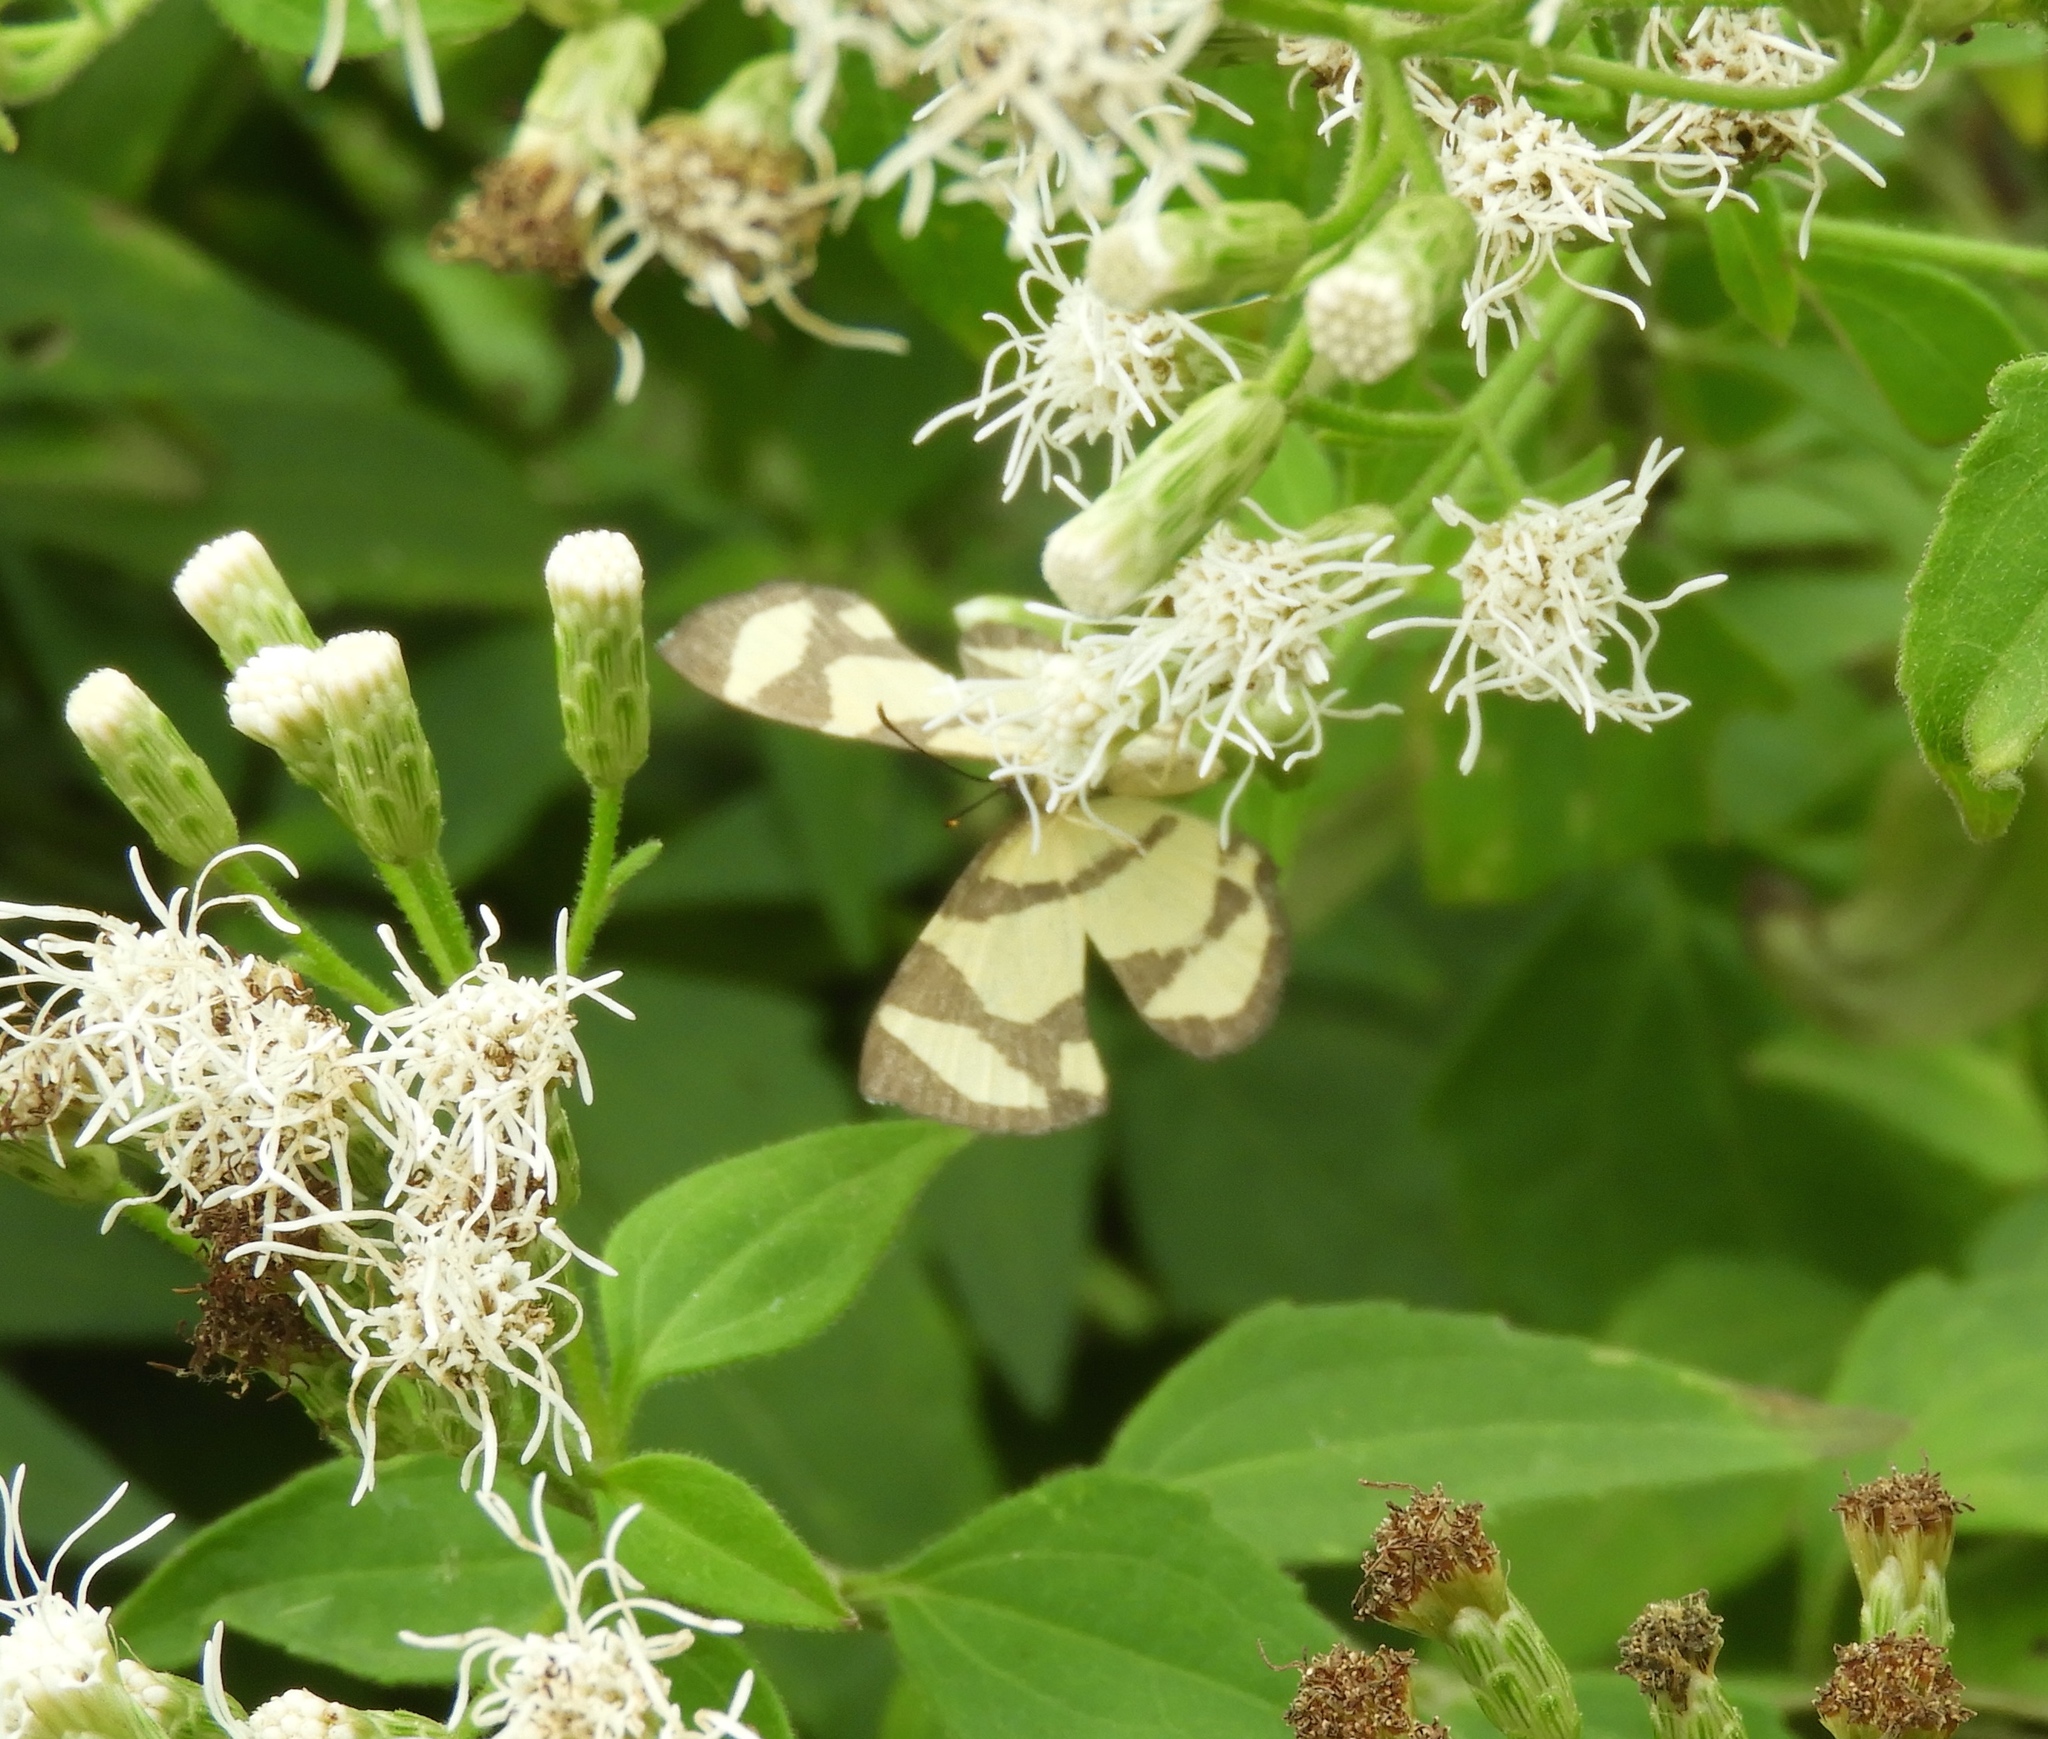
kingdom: Animalia
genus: Baeotis
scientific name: Baeotis zonata
